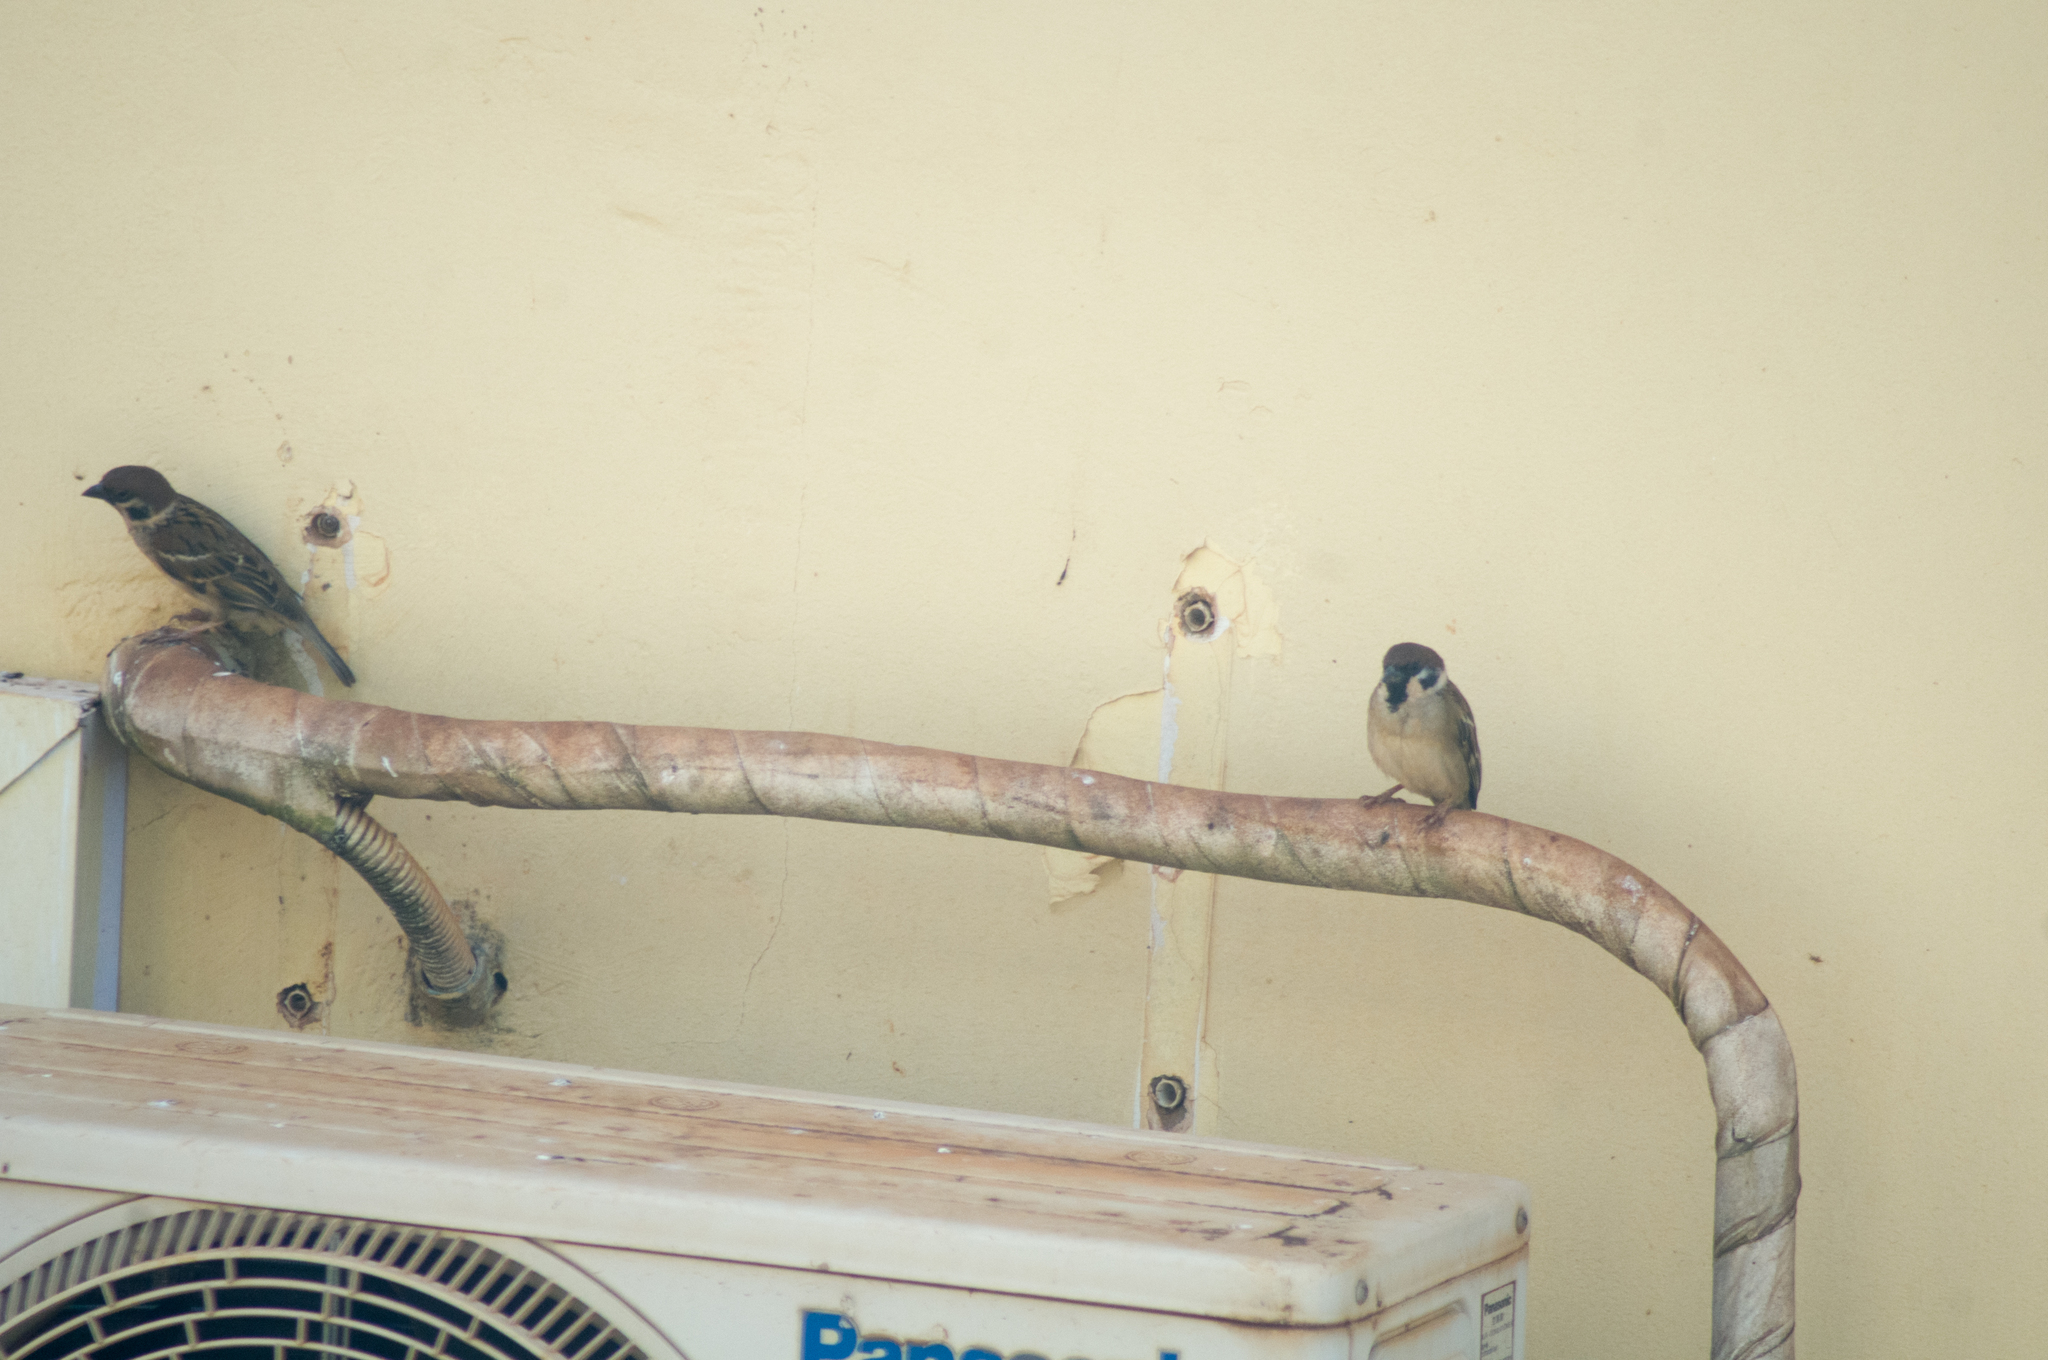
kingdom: Animalia
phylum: Chordata
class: Aves
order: Passeriformes
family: Passeridae
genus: Passer
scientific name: Passer montanus
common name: Eurasian tree sparrow
